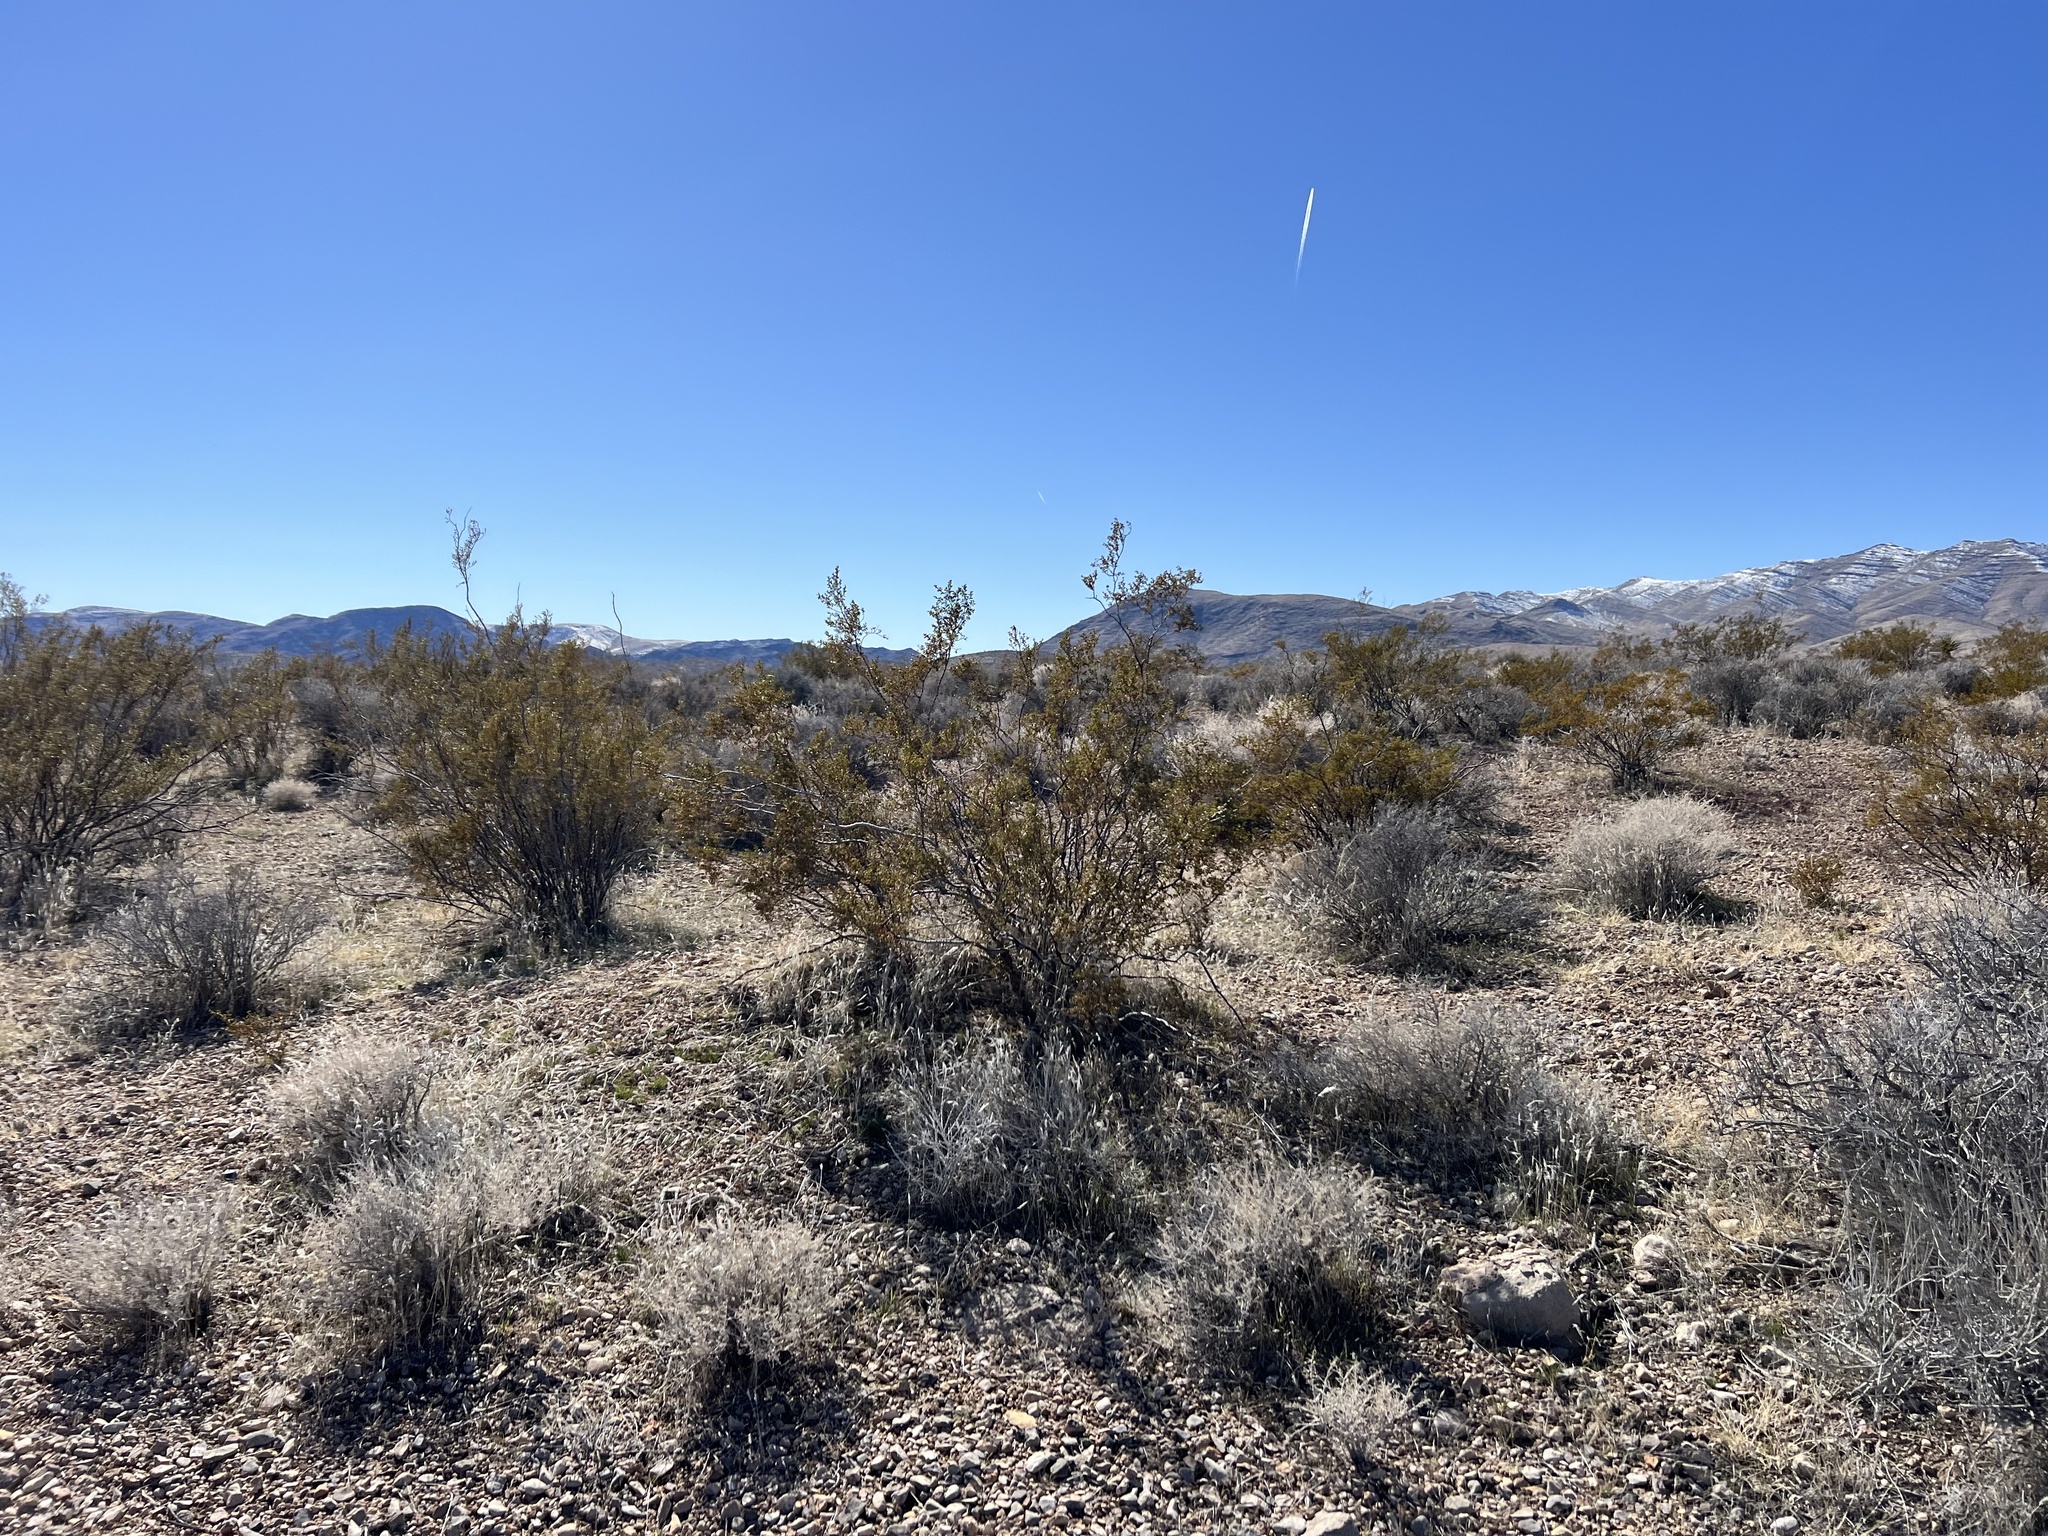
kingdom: Plantae
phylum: Tracheophyta
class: Magnoliopsida
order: Zygophyllales
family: Zygophyllaceae
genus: Larrea
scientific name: Larrea tridentata
